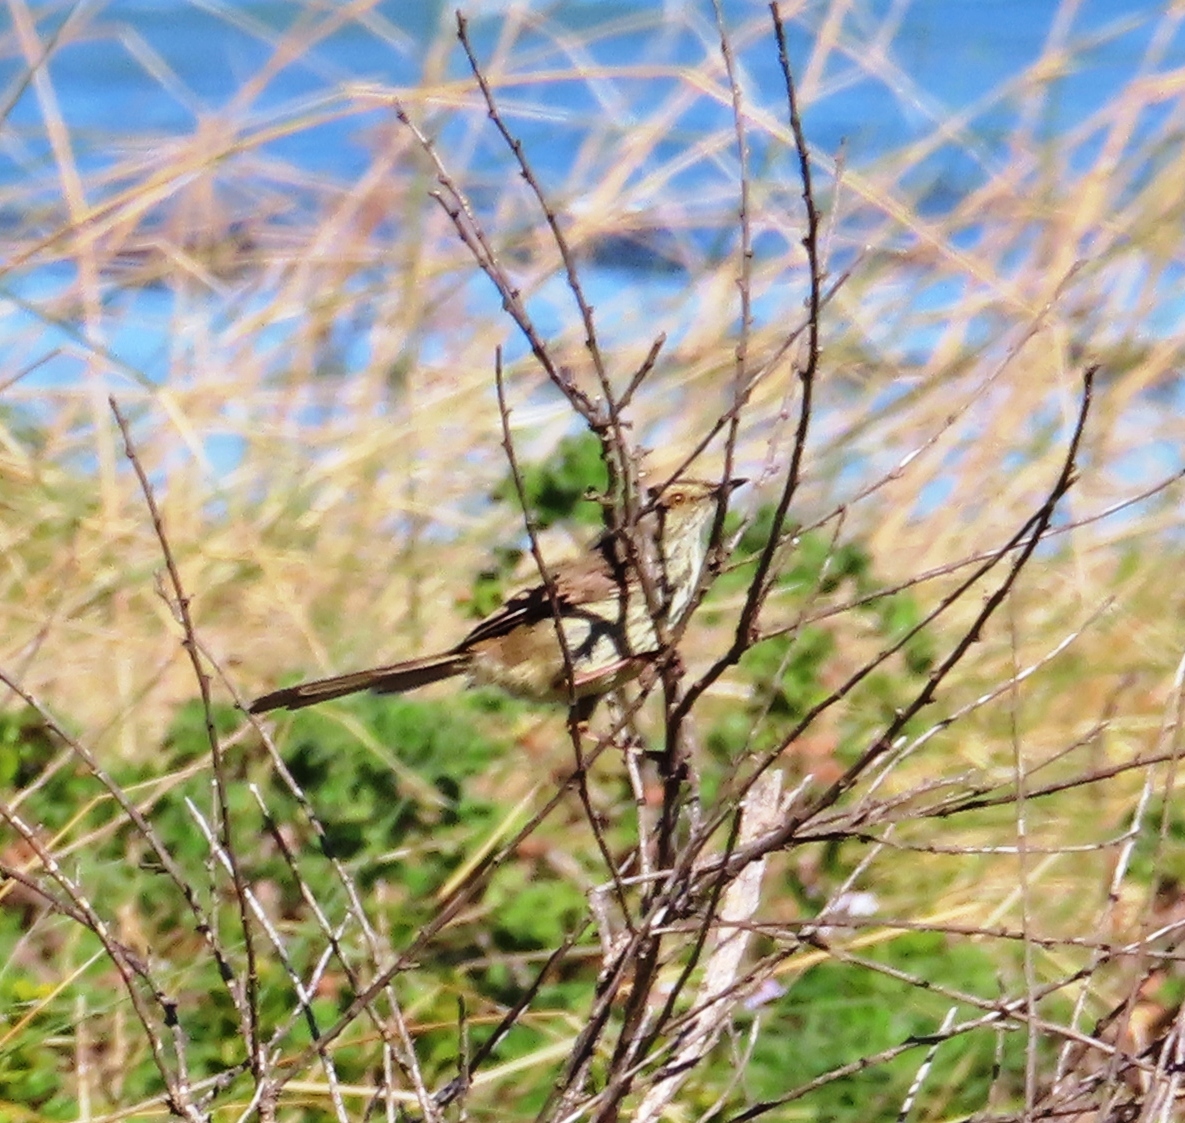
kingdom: Animalia
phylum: Chordata
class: Aves
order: Passeriformes
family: Cisticolidae
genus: Prinia
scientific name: Prinia maculosa
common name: Karoo prinia
